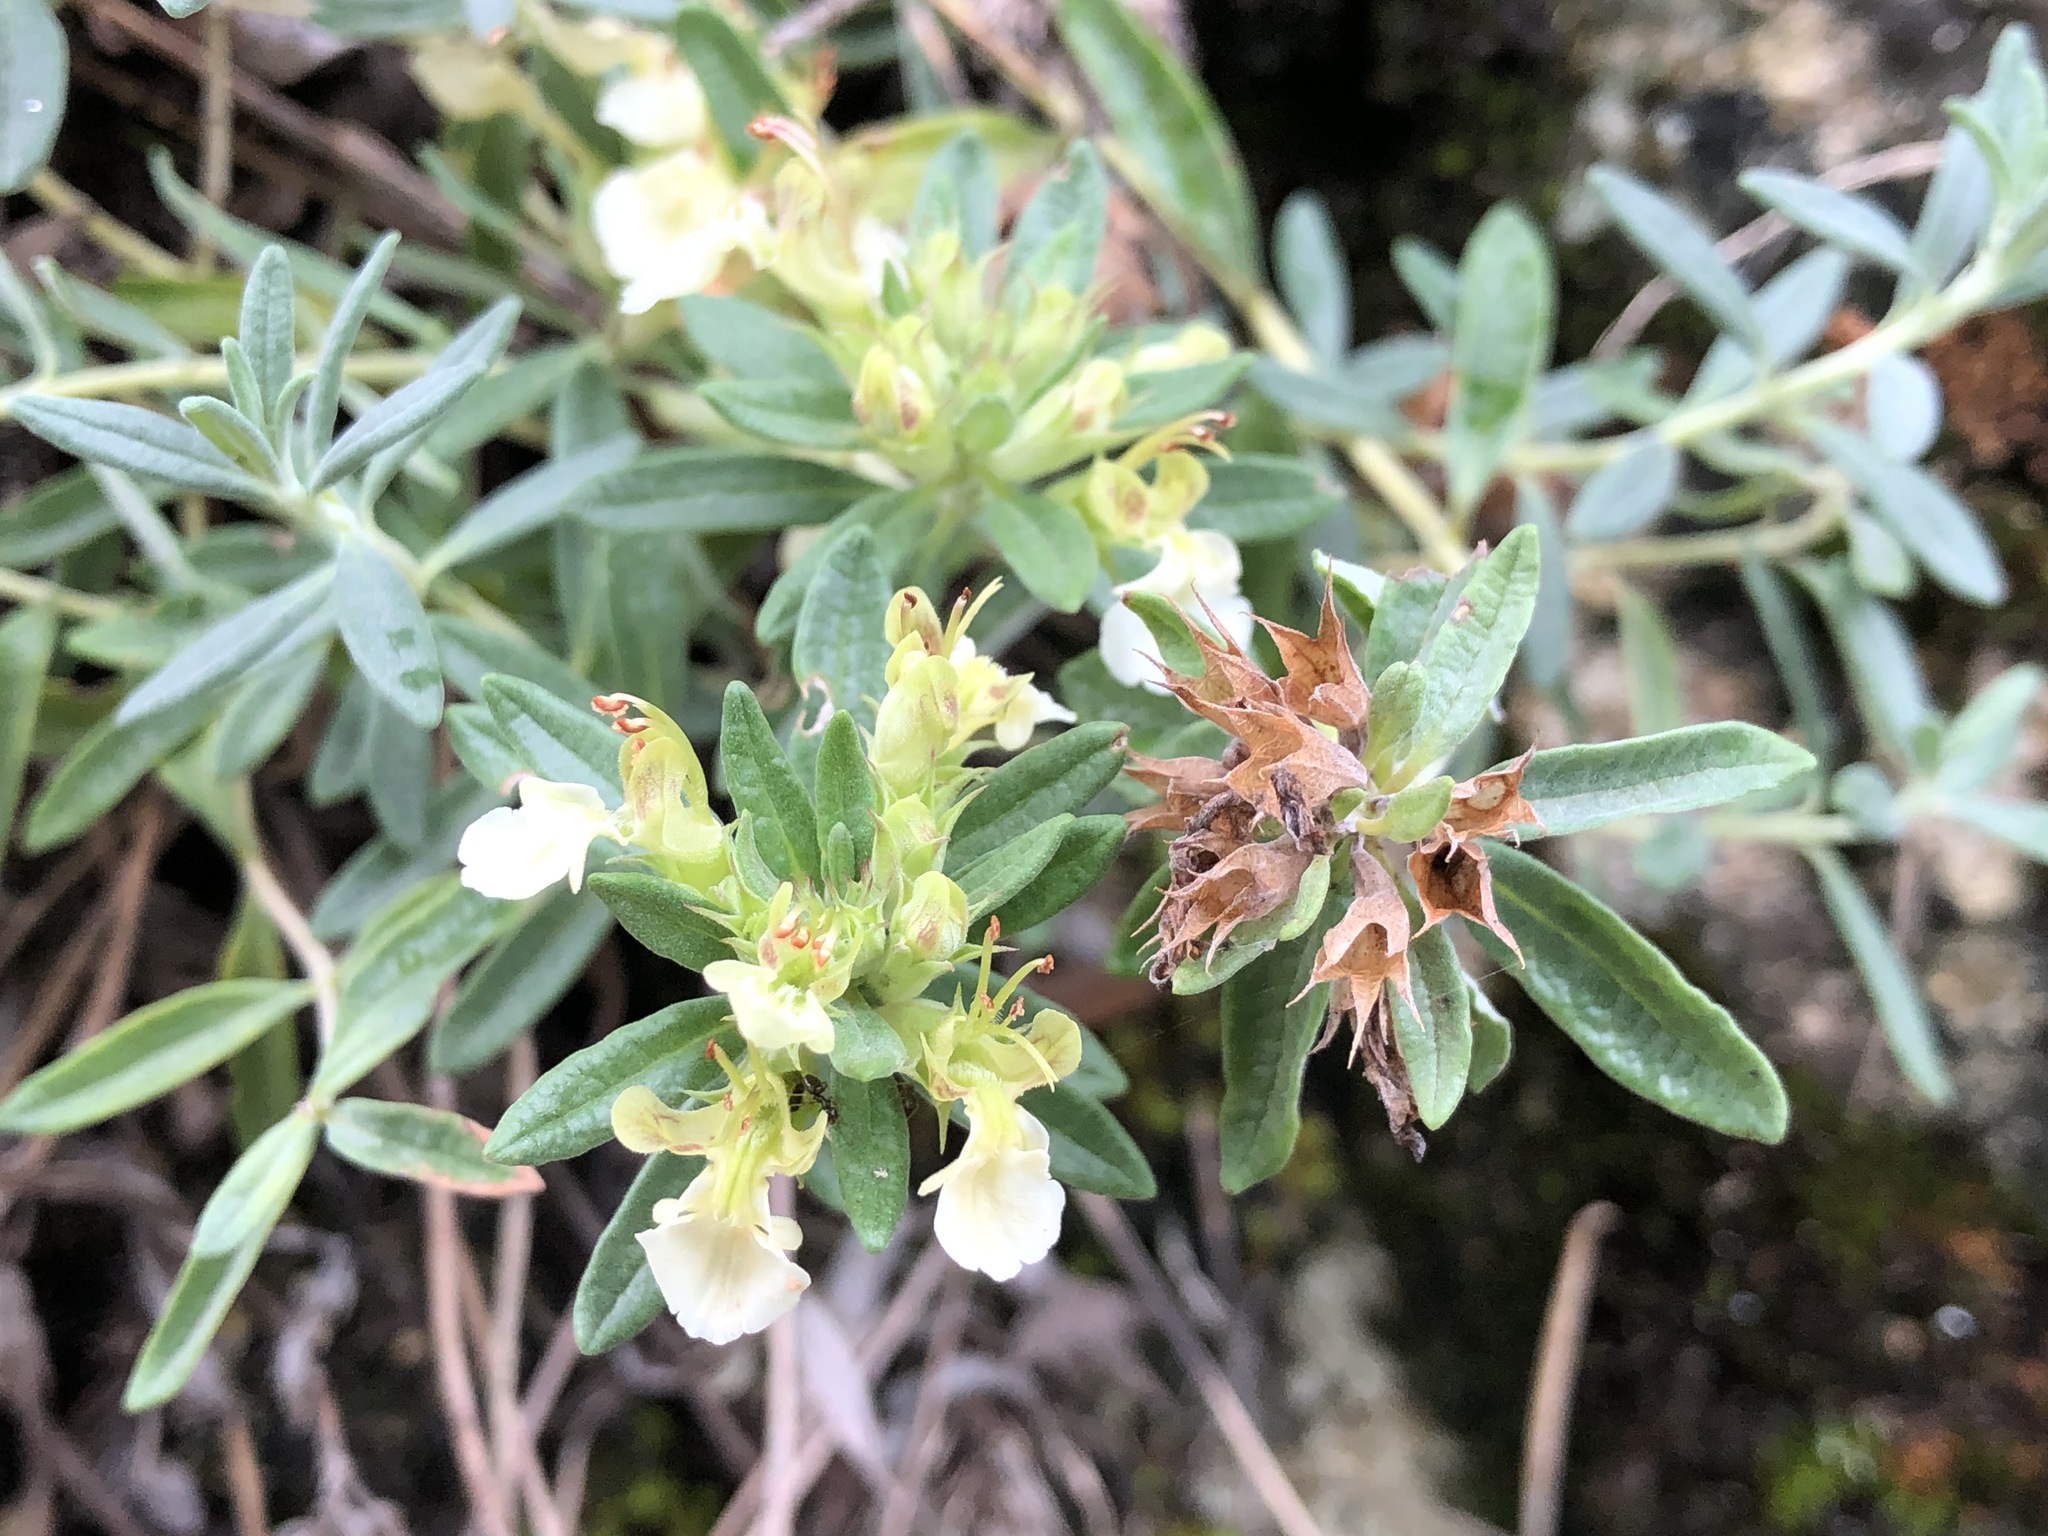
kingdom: Plantae
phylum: Tracheophyta
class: Magnoliopsida
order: Lamiales
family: Lamiaceae
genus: Teucrium
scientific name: Teucrium montanum
